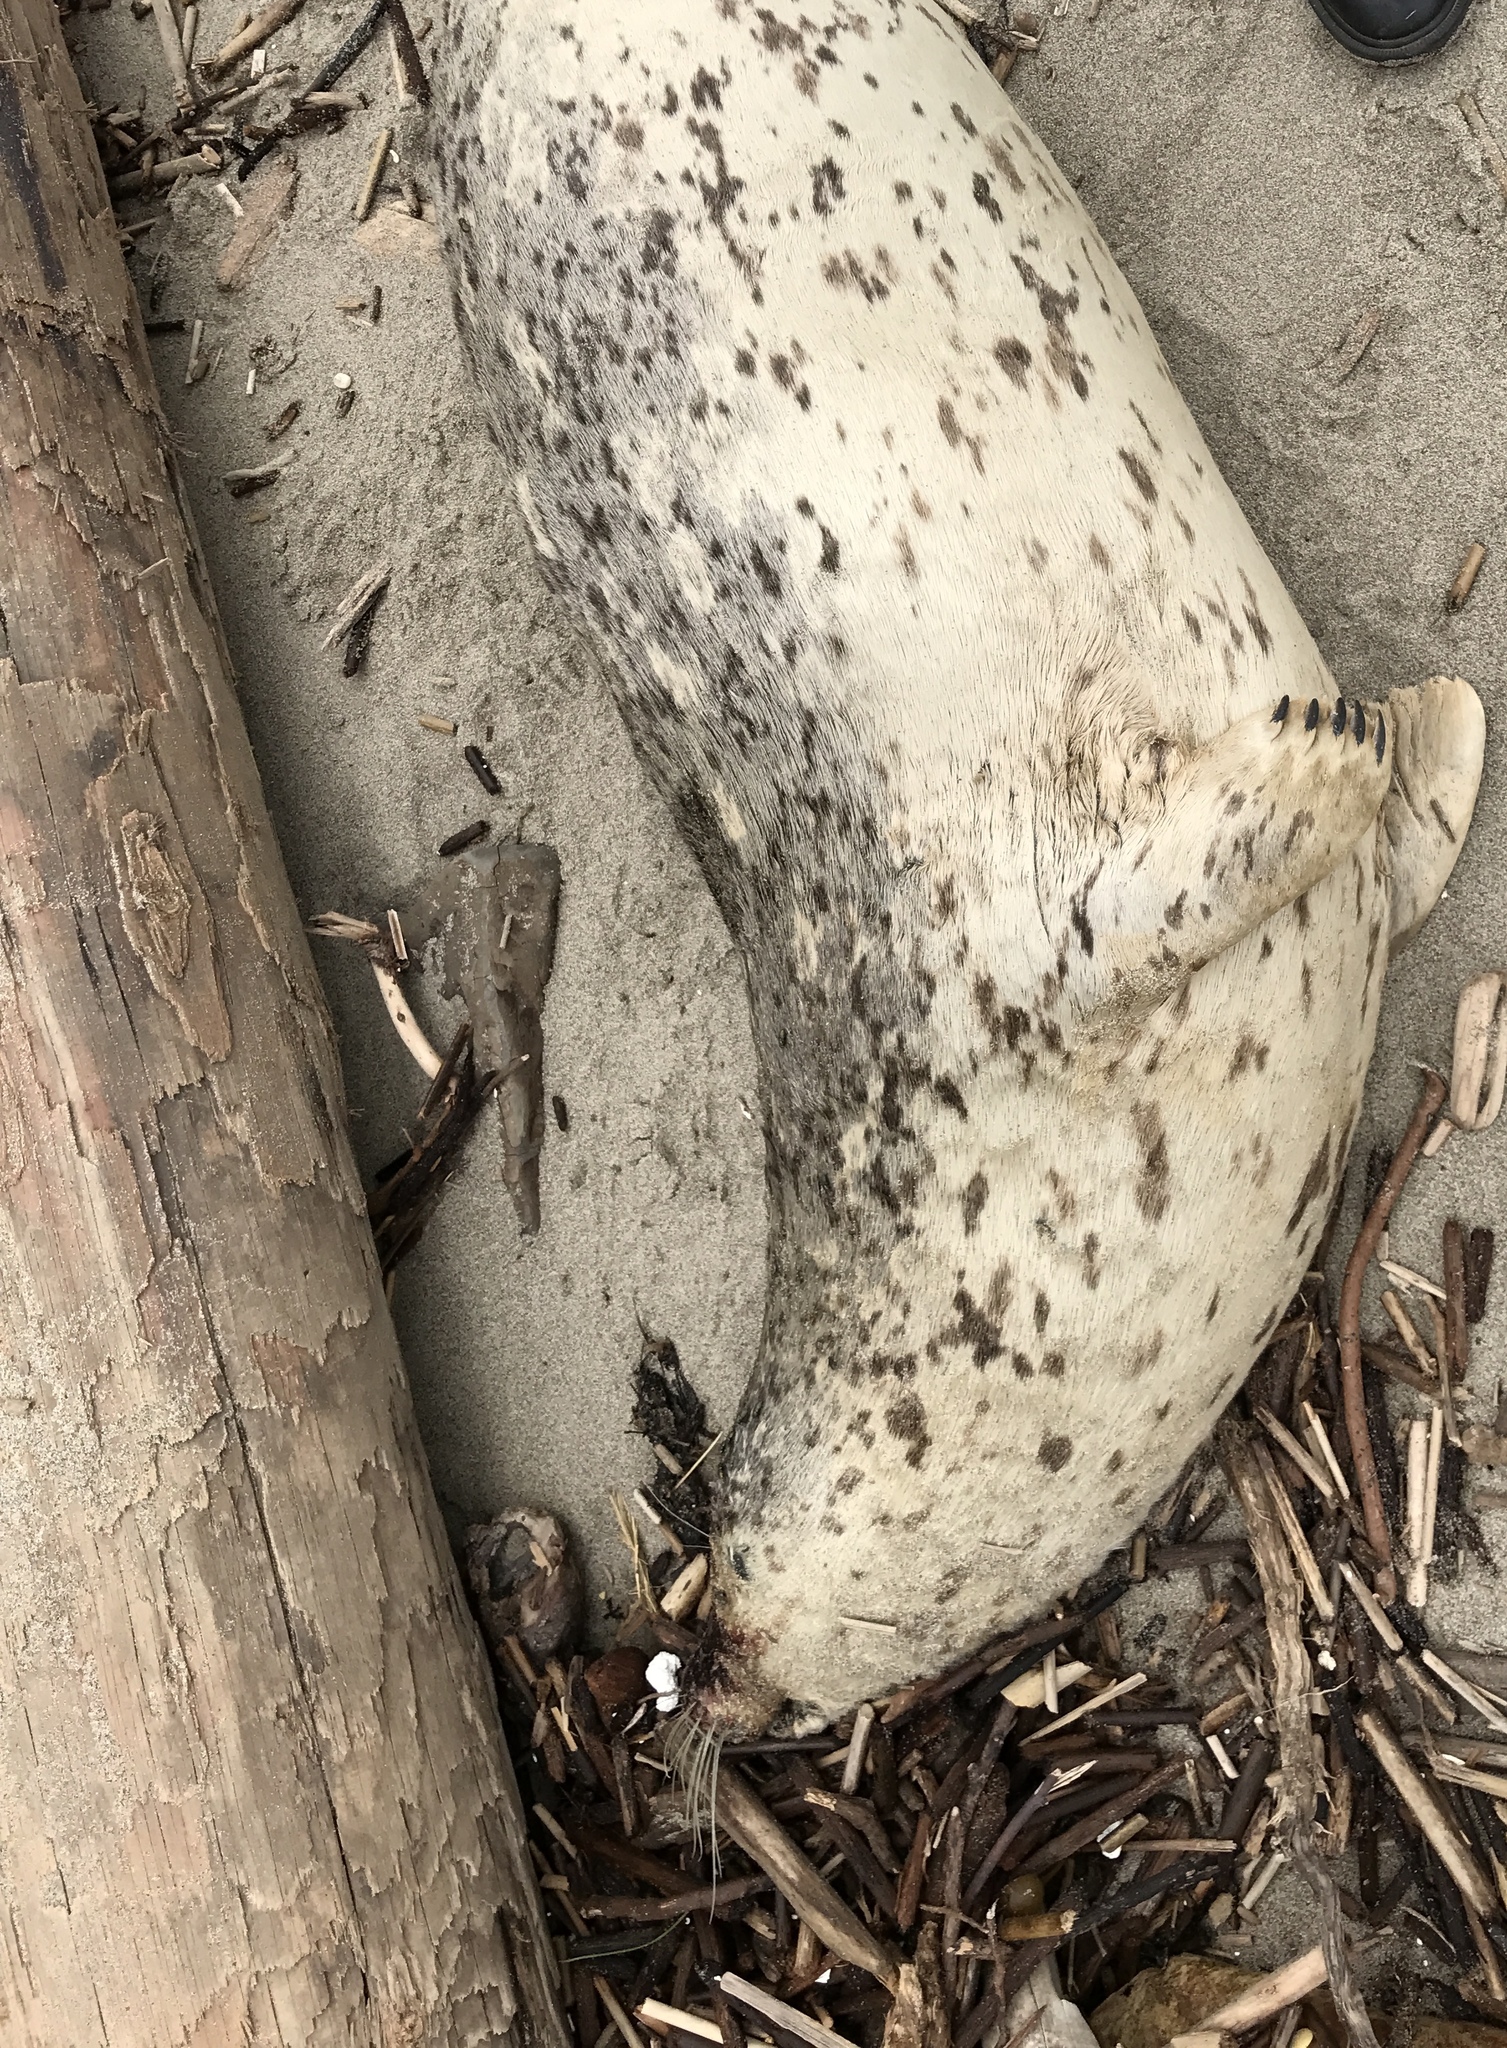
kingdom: Animalia
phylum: Chordata
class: Mammalia
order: Carnivora
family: Phocidae
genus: Phoca
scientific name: Phoca vitulina
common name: Harbor seal
